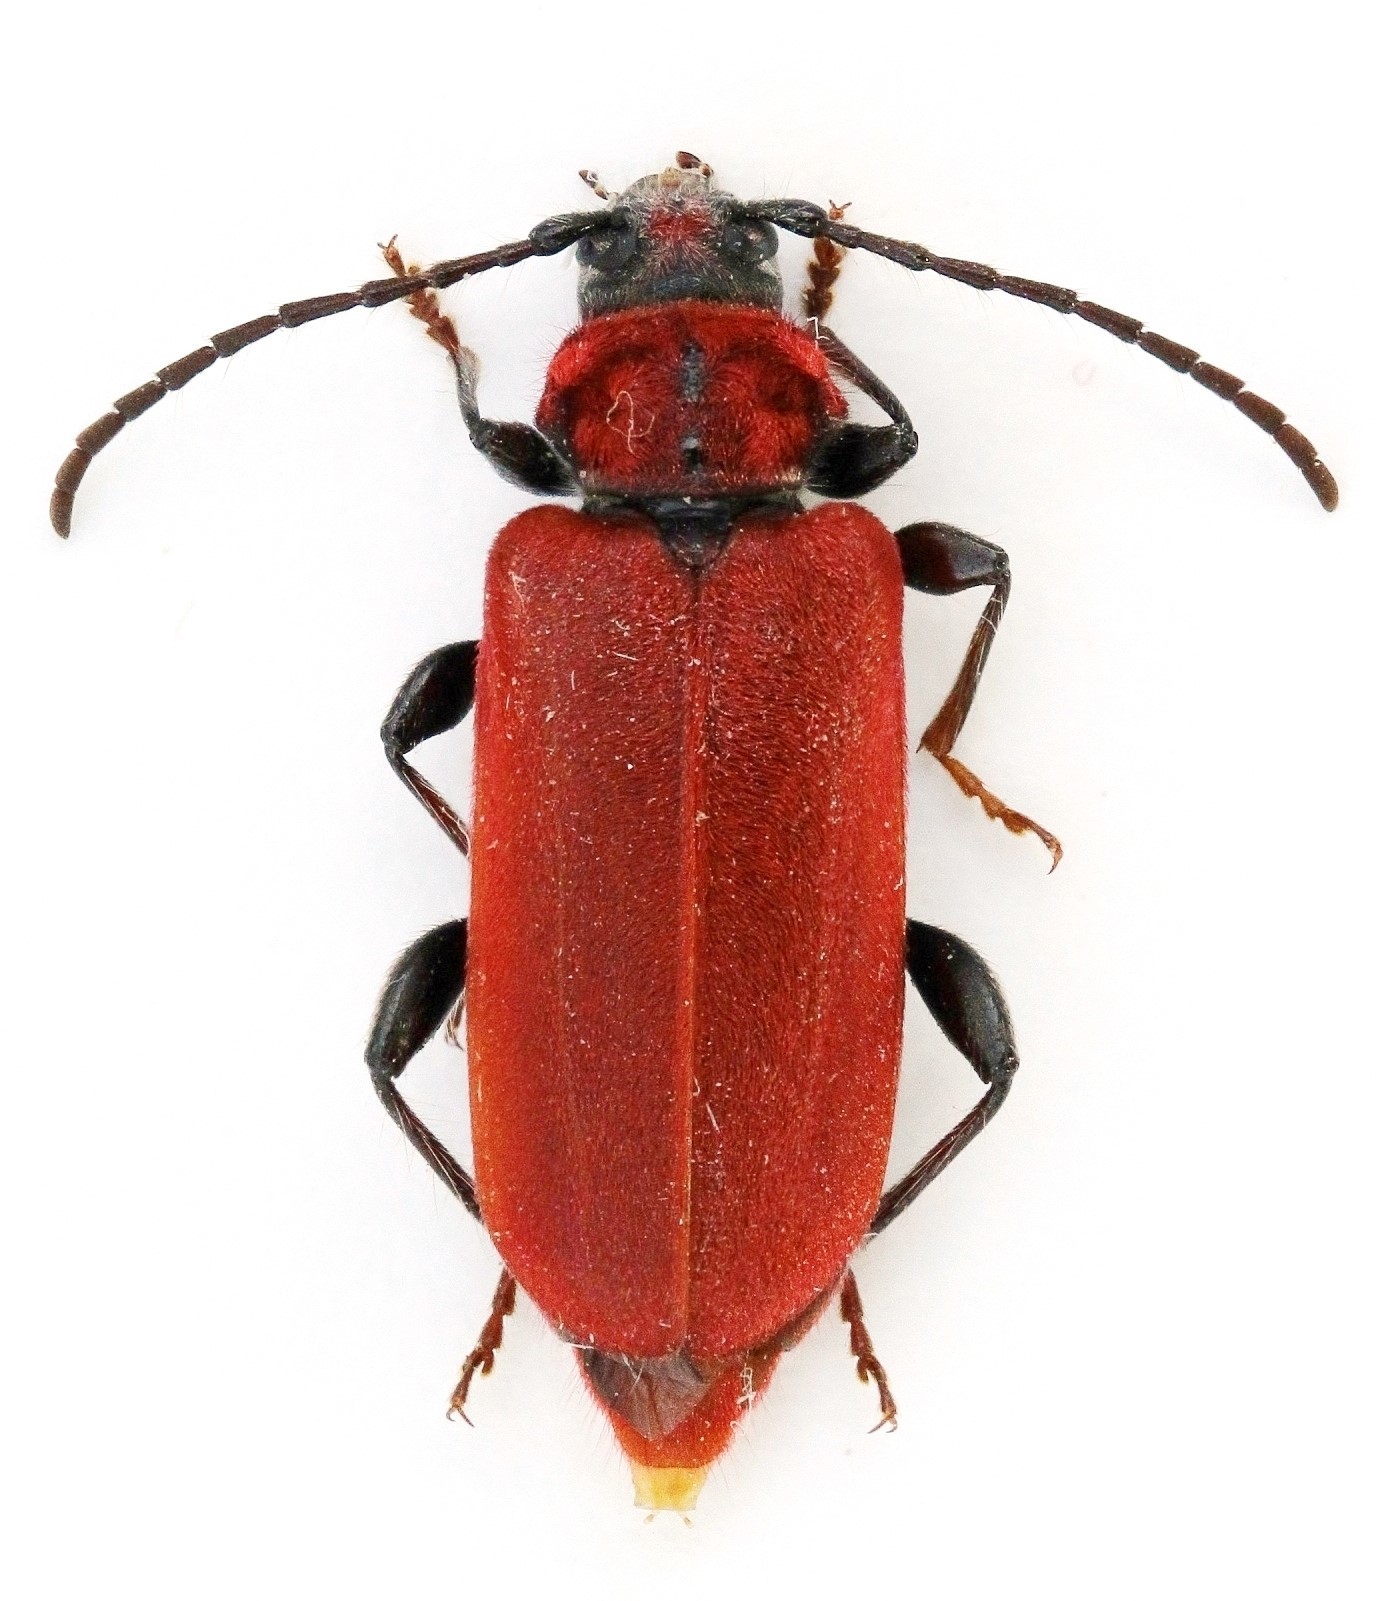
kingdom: Animalia
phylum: Arthropoda
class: Insecta
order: Coleoptera
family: Cerambycidae
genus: Pyrrhidium
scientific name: Pyrrhidium sanguineum
